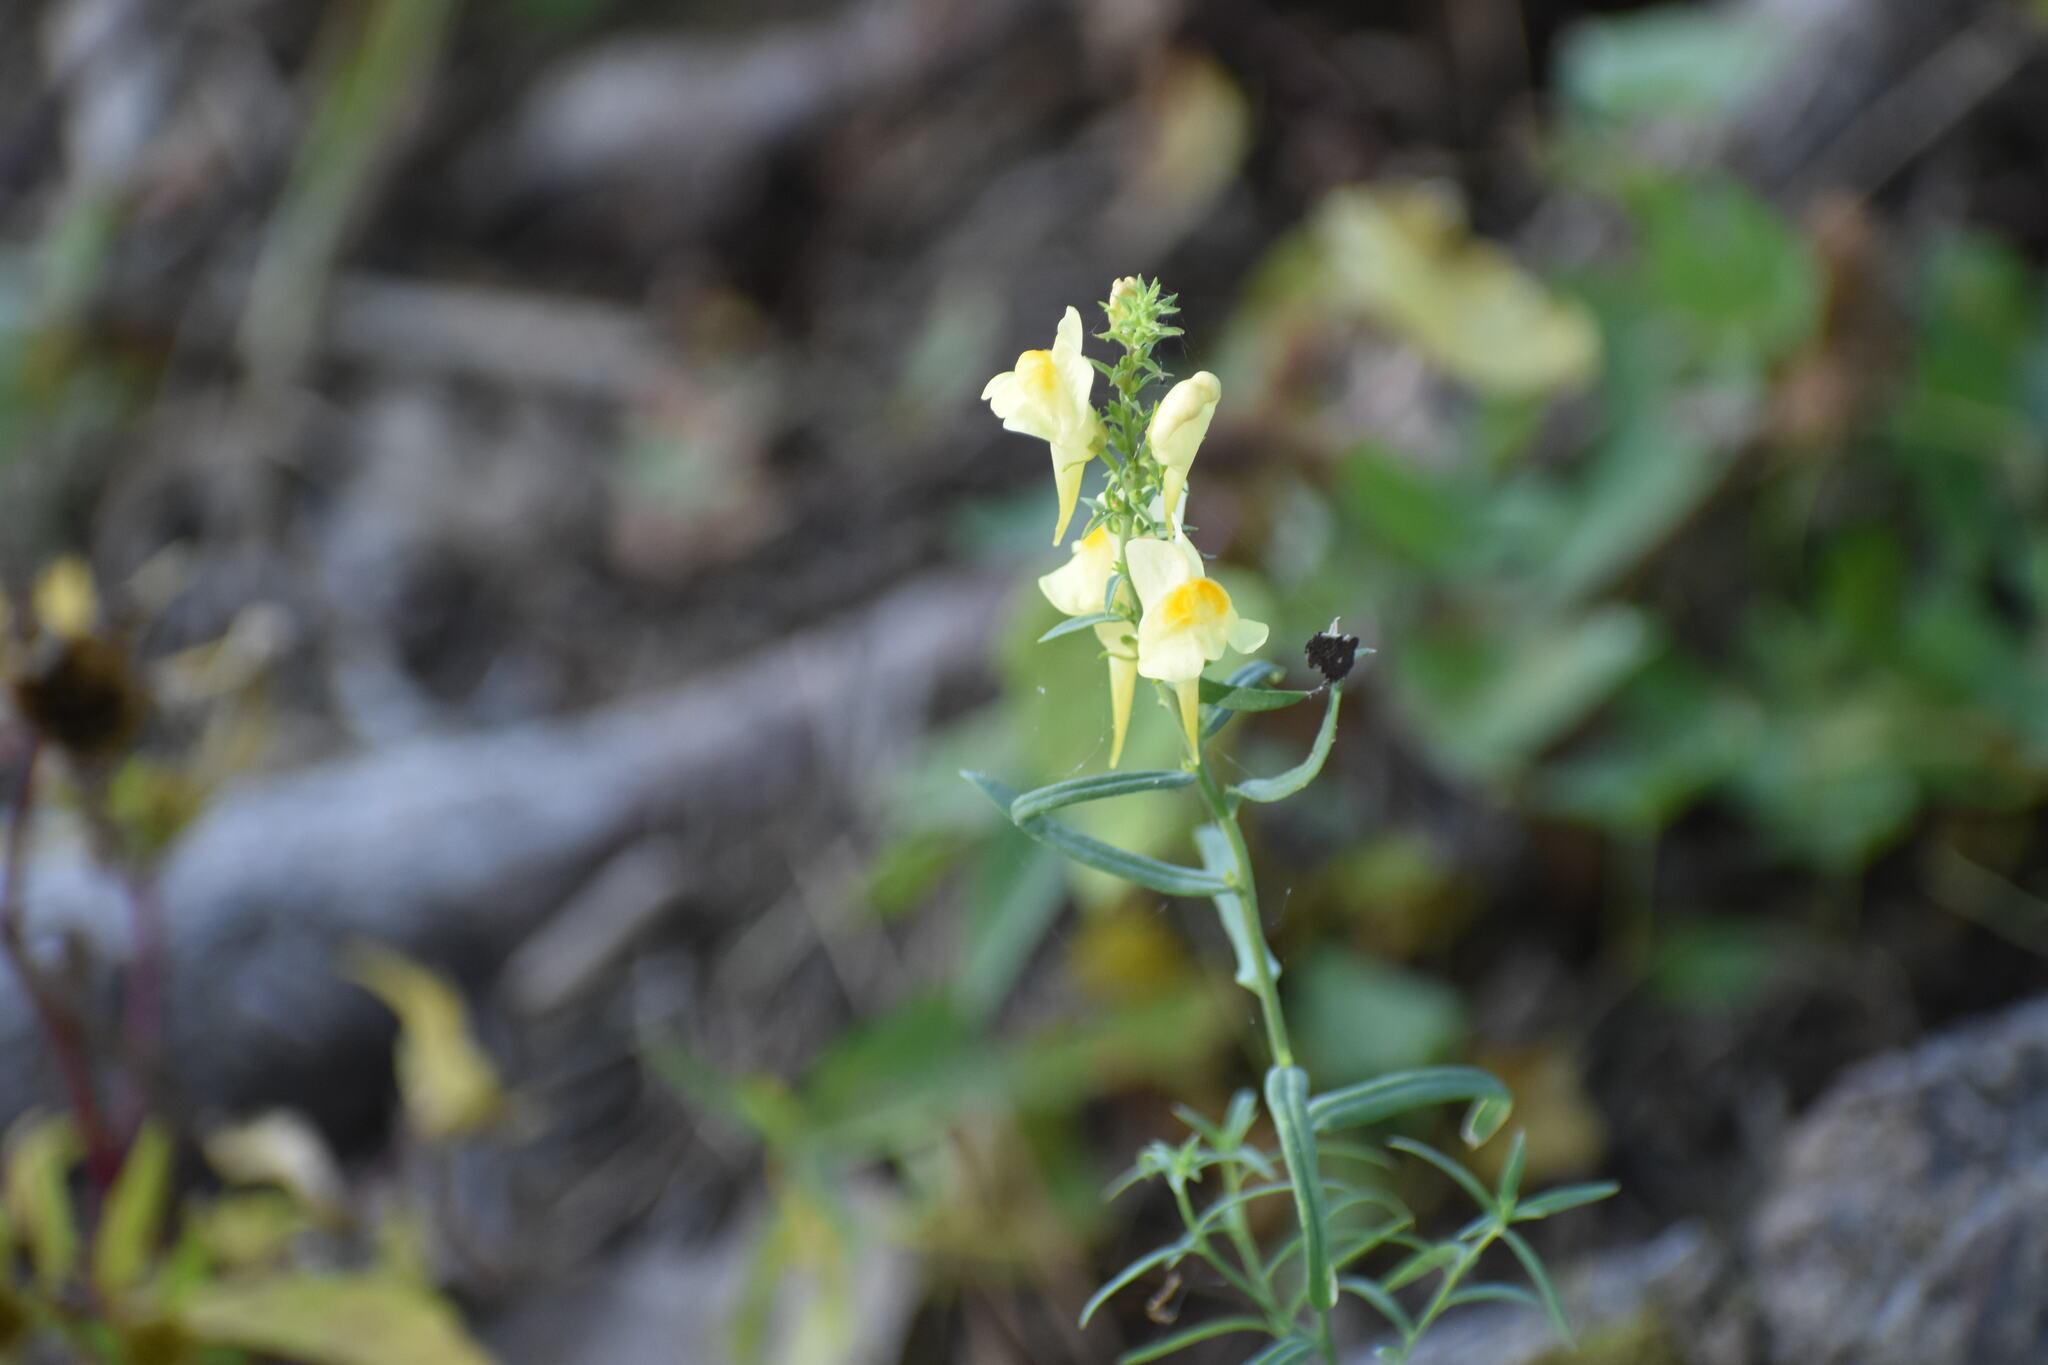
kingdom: Plantae
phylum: Tracheophyta
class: Magnoliopsida
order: Lamiales
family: Plantaginaceae
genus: Linaria
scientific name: Linaria vulgaris
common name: Butter and eggs
